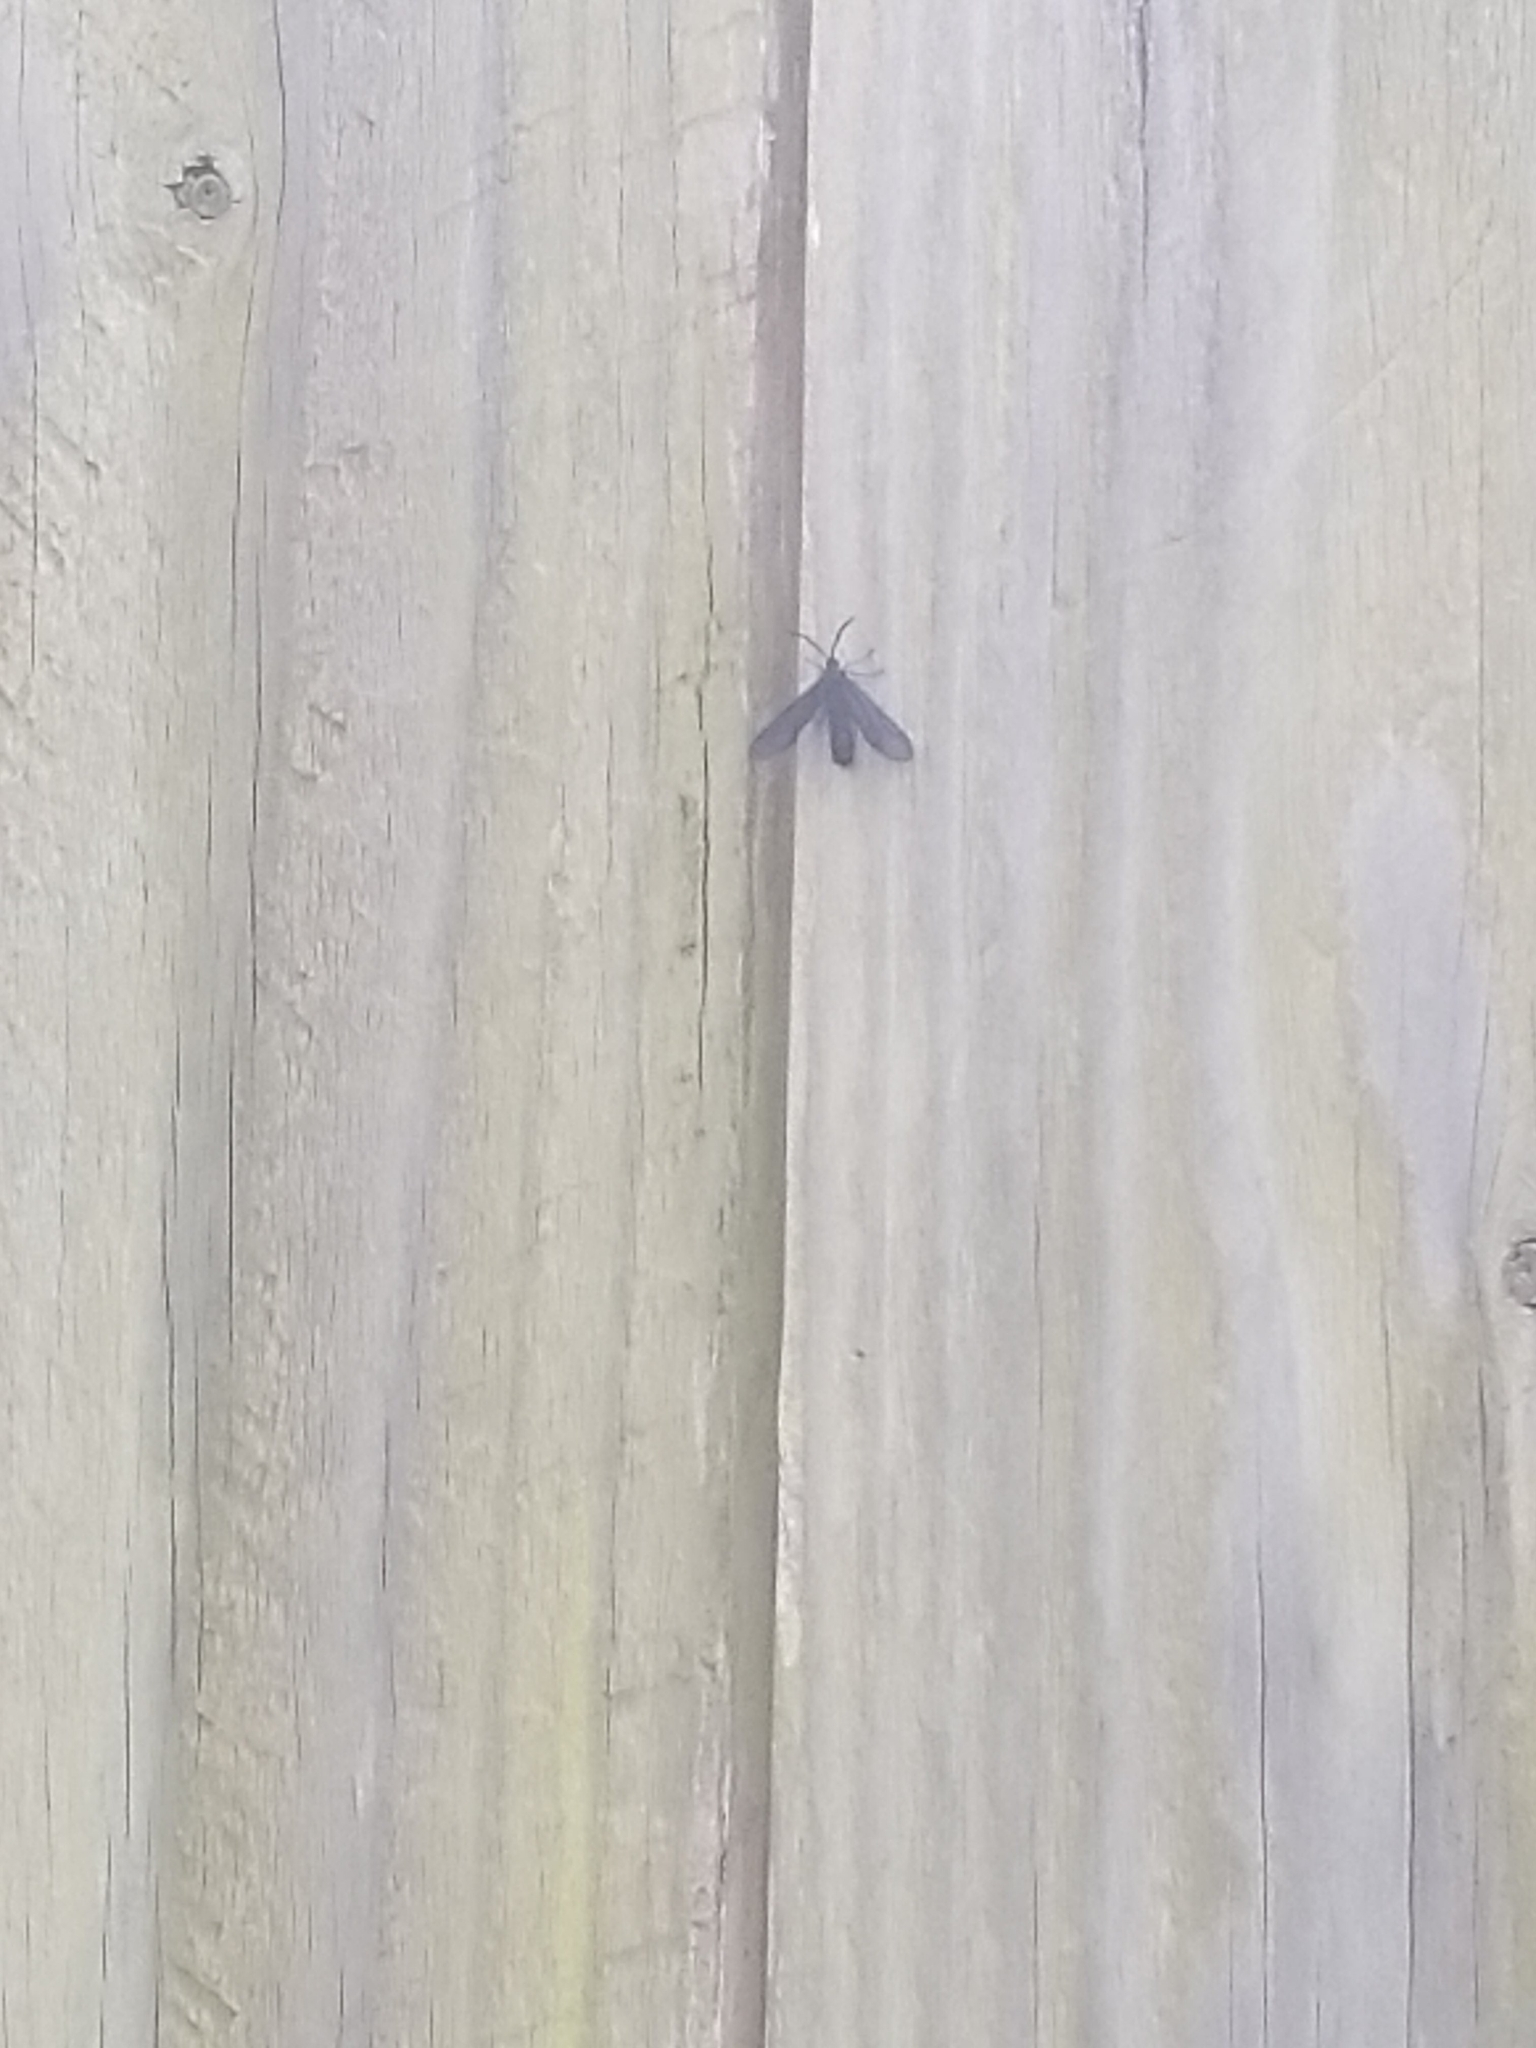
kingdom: Animalia
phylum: Arthropoda
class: Insecta
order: Lepidoptera
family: Zygaenidae
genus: Harrisina
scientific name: Harrisina americana
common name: Grapeleaf skeletonizer moth
